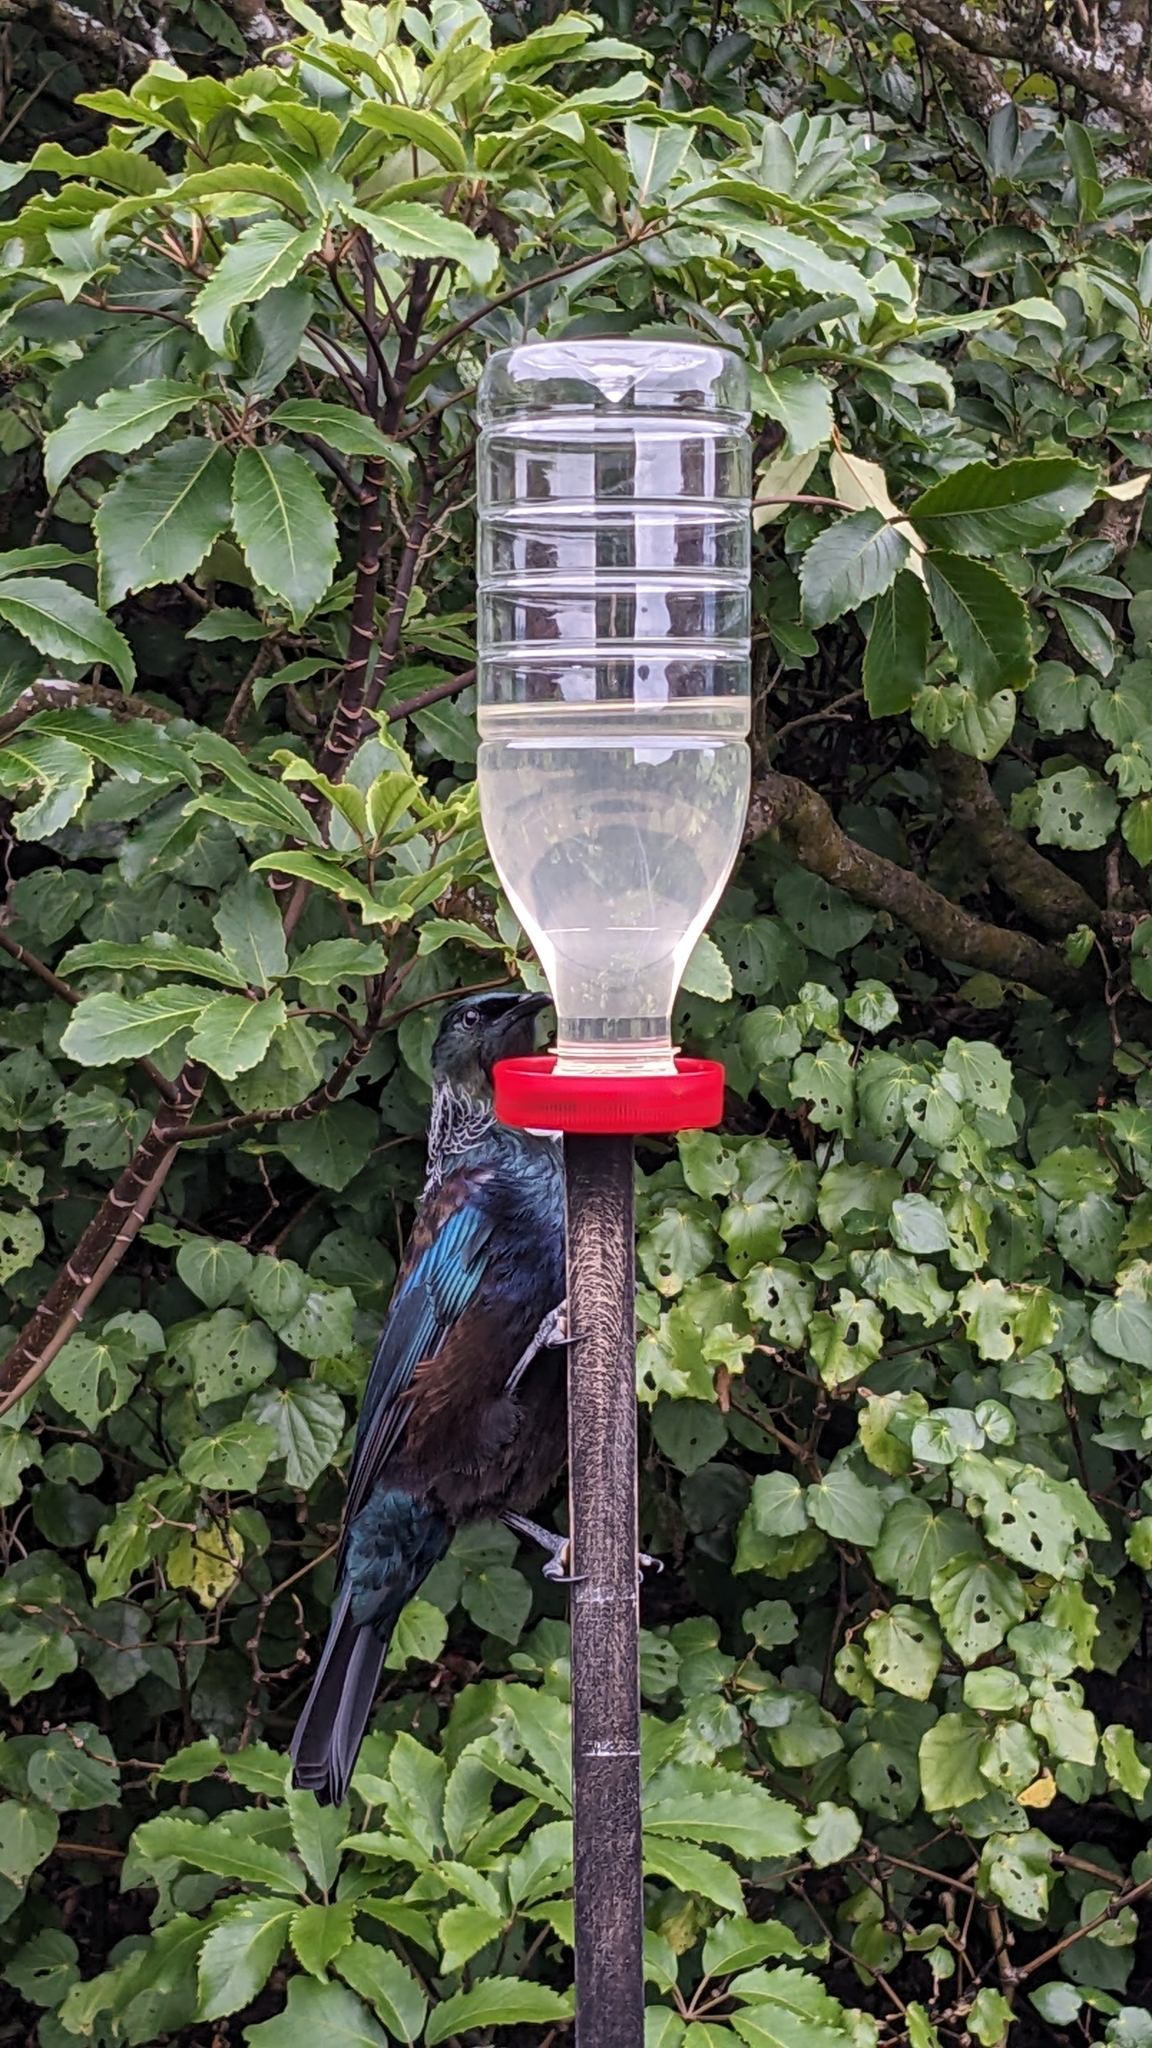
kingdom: Animalia
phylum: Chordata
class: Aves
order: Passeriformes
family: Meliphagidae
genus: Prosthemadera
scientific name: Prosthemadera novaeseelandiae
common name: Tui
